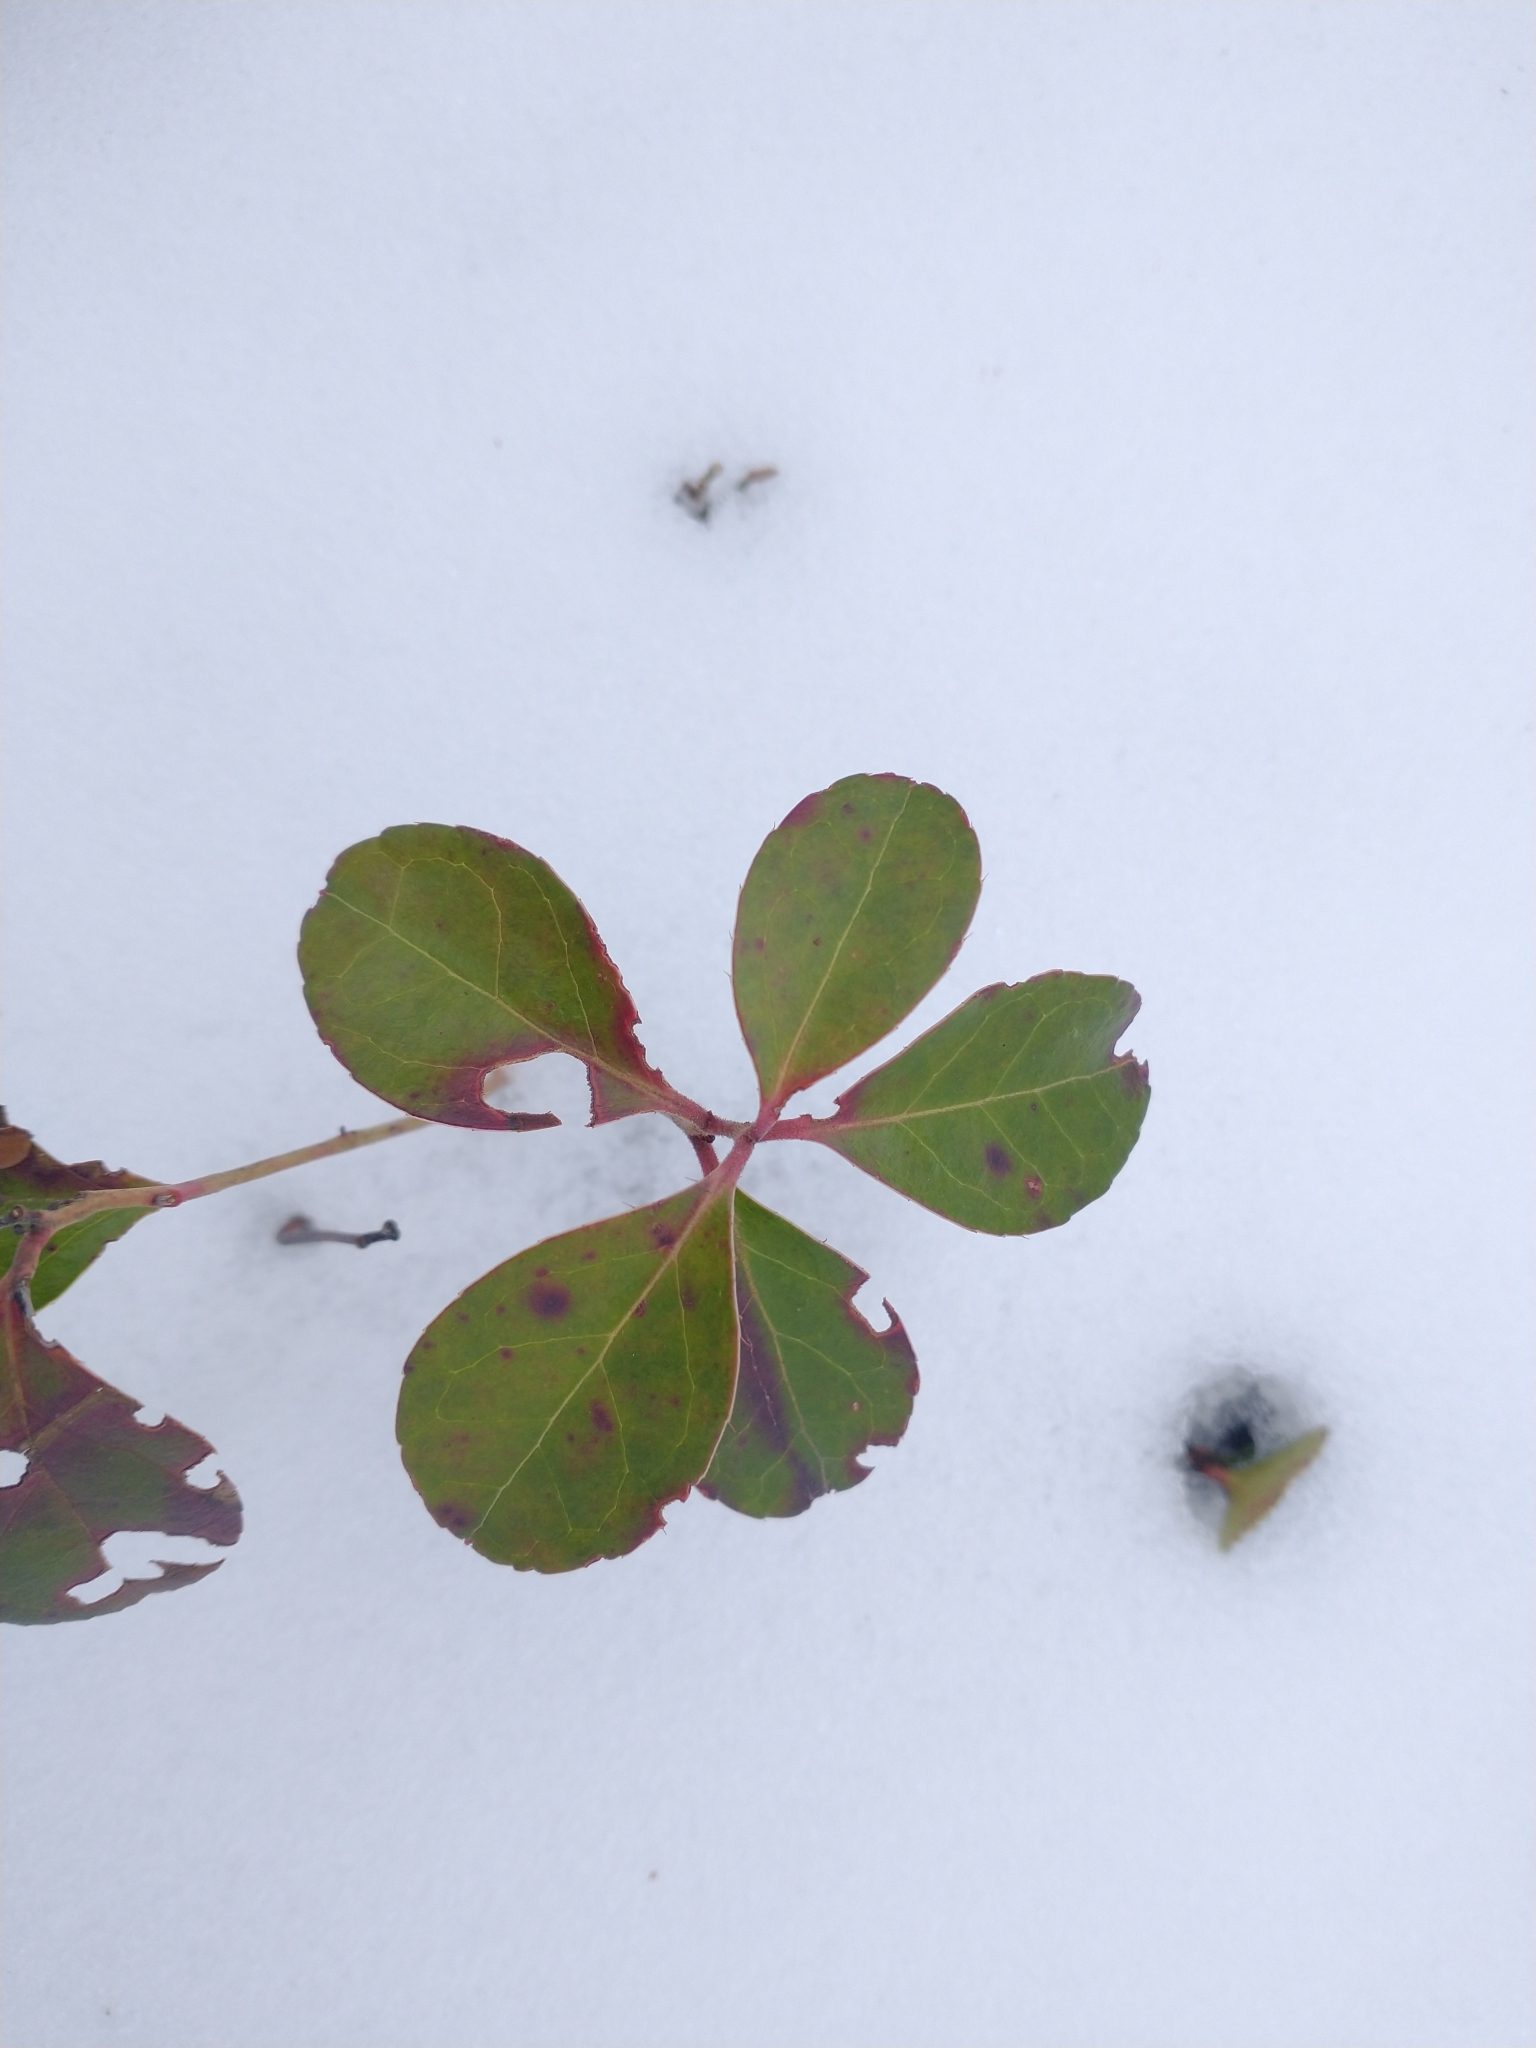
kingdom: Plantae
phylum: Tracheophyta
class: Magnoliopsida
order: Ericales
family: Ericaceae
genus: Gaultheria
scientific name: Gaultheria procumbens
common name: Checkerberry
